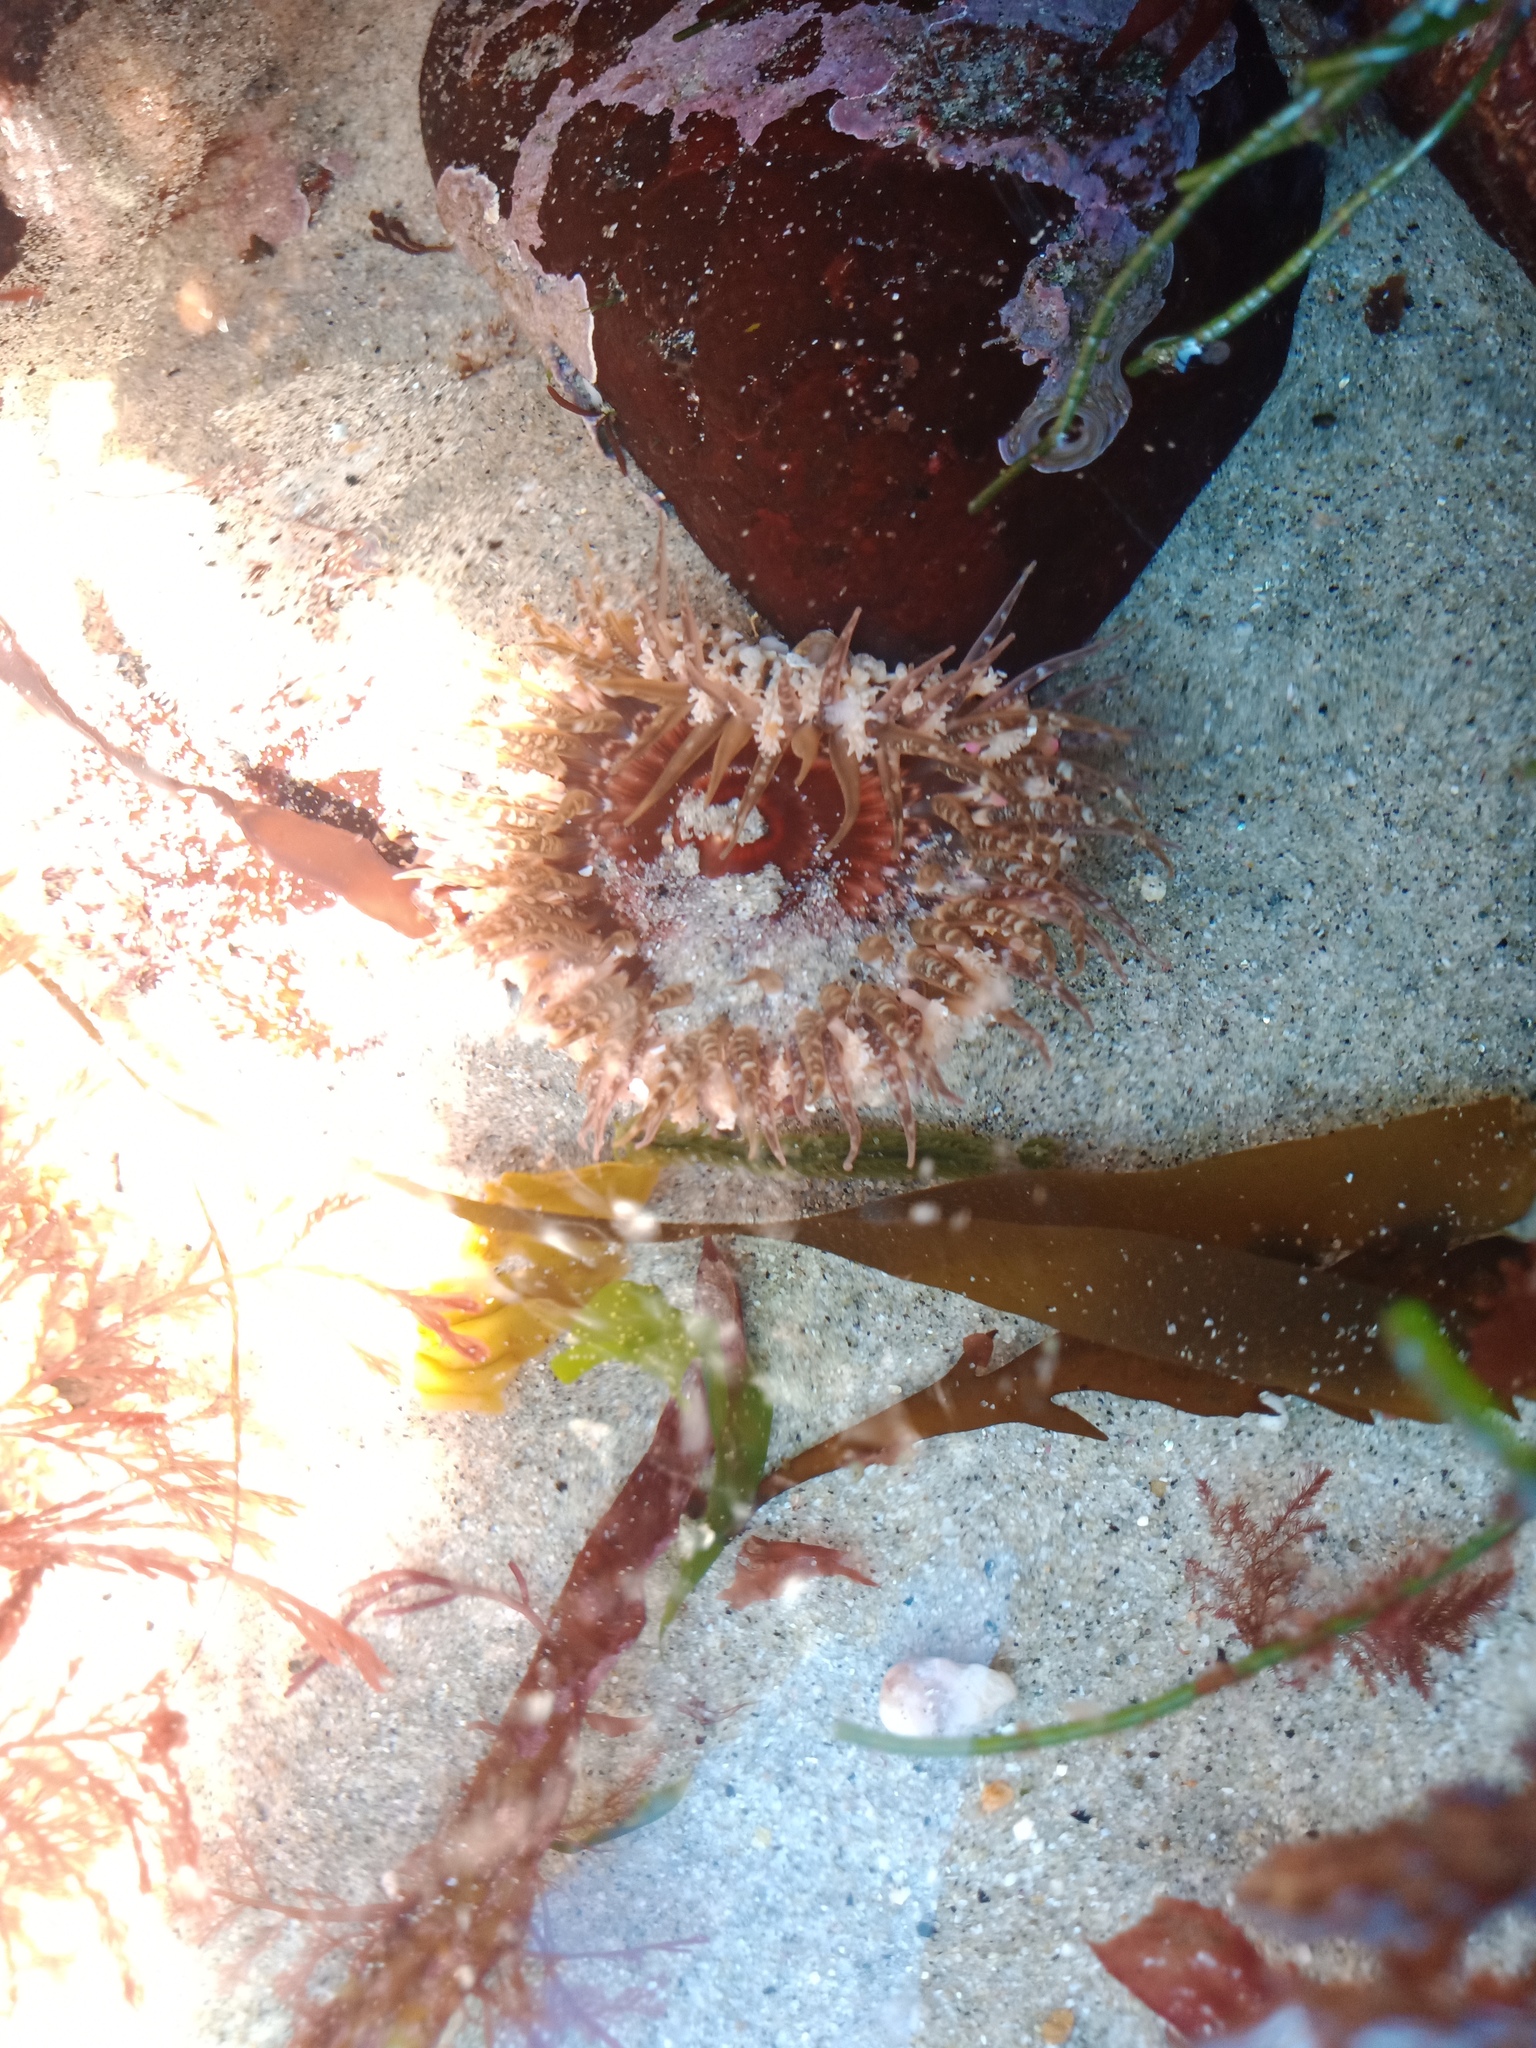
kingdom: Animalia
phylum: Cnidaria
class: Anthozoa
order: Actiniaria
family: Actiniidae
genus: Oulactis
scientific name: Oulactis muscosa
